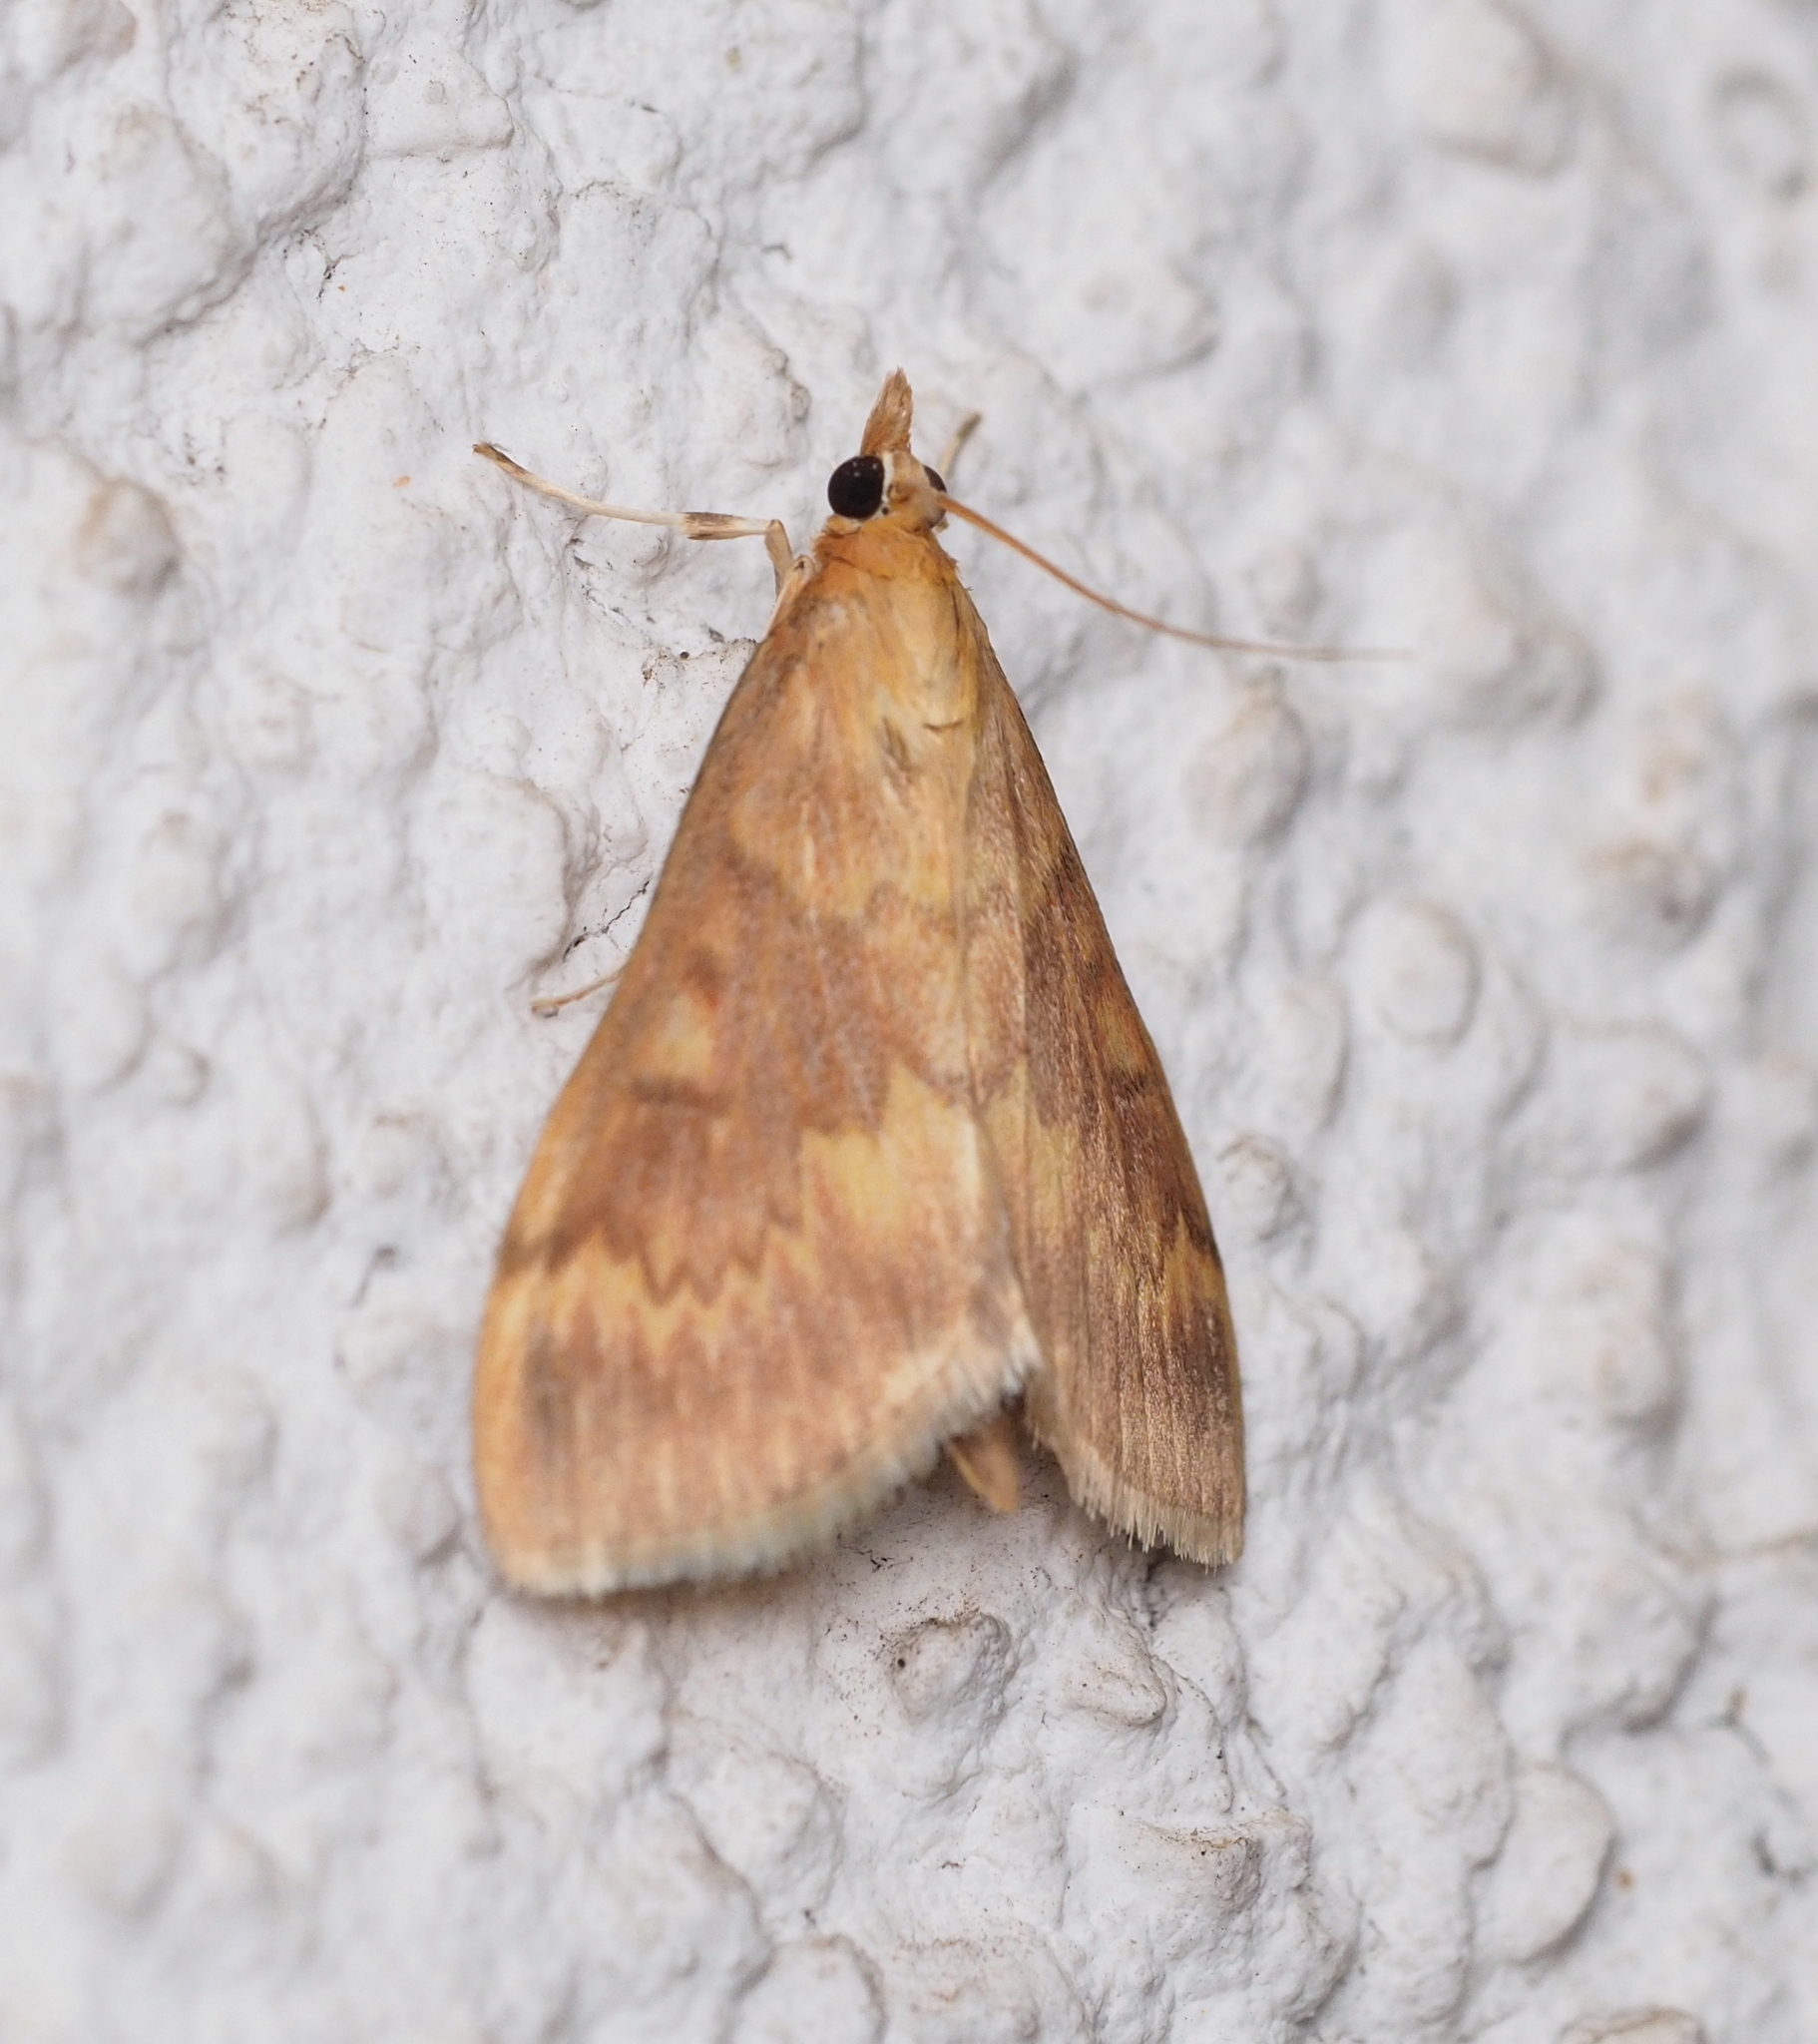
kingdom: Animalia
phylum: Arthropoda
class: Insecta
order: Lepidoptera
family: Crambidae
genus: Ostrinia
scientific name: Ostrinia nubilalis
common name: European corn borer
